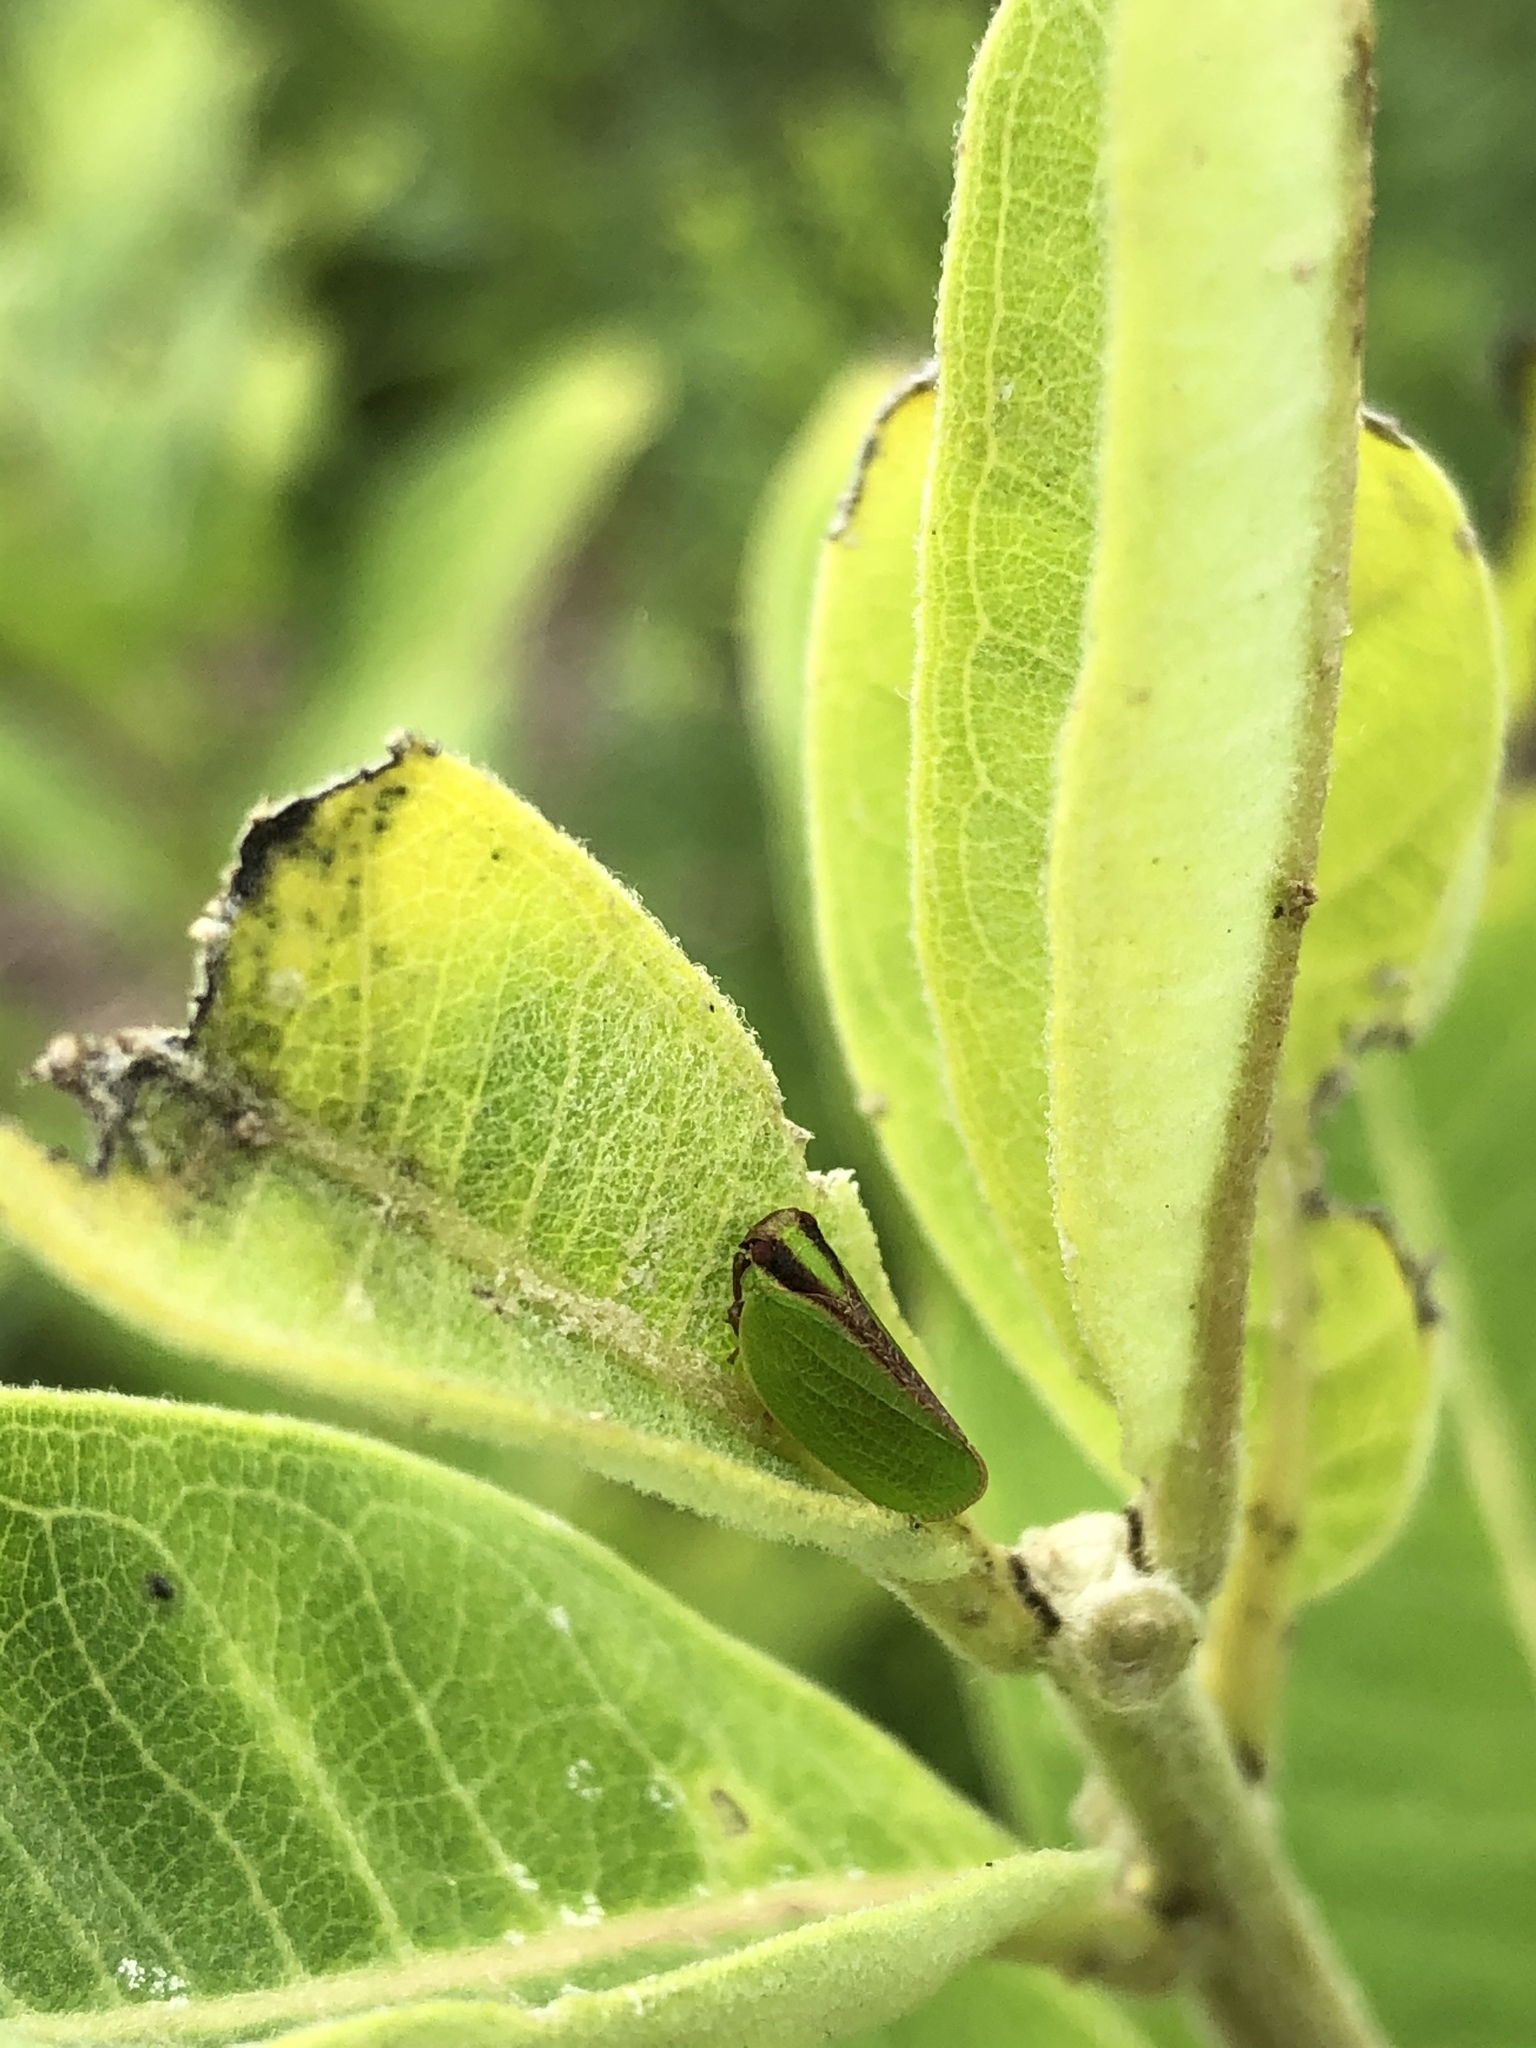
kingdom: Animalia
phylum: Arthropoda
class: Insecta
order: Hemiptera
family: Acanaloniidae
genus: Acanalonia
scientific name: Acanalonia bivittata
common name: Two-striped planthopper
